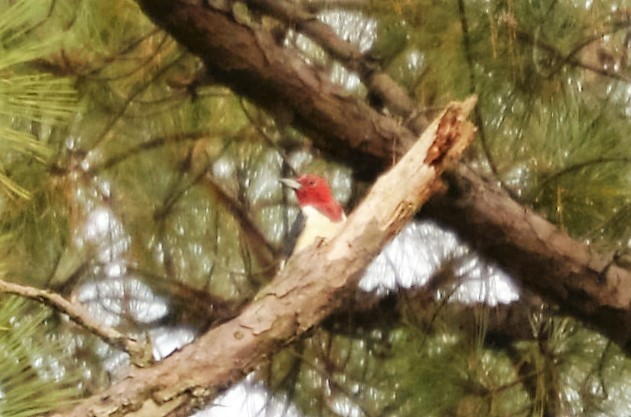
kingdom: Animalia
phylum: Chordata
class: Aves
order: Piciformes
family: Picidae
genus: Melanerpes
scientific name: Melanerpes erythrocephalus
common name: Red-headed woodpecker
